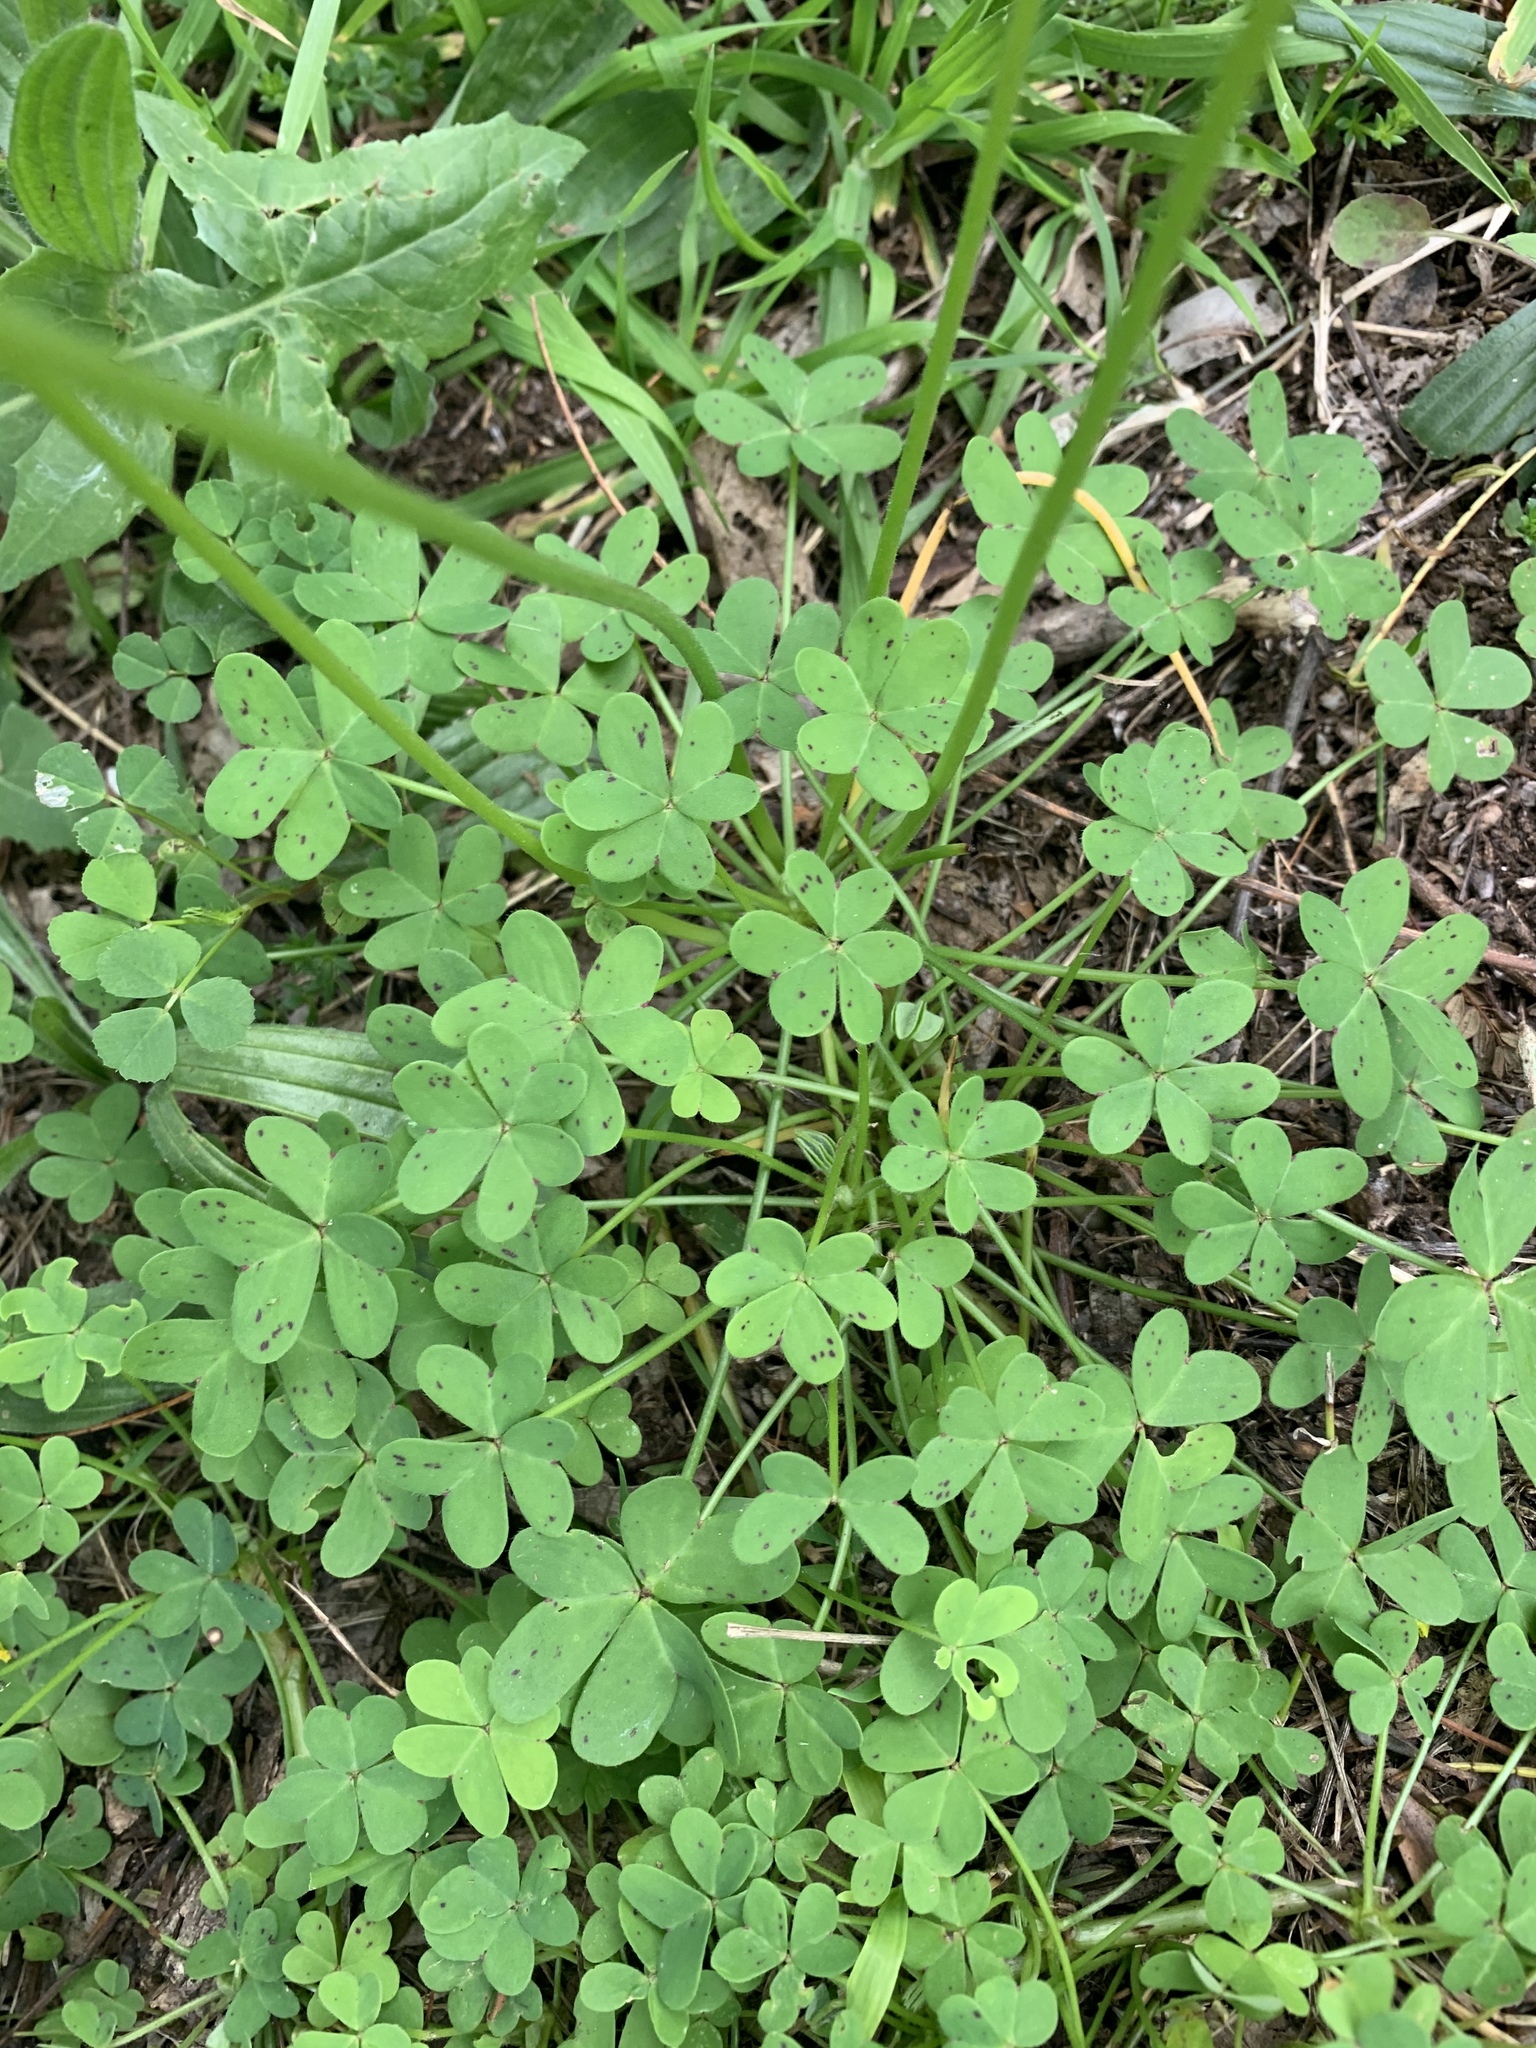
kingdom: Plantae
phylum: Tracheophyta
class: Magnoliopsida
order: Oxalidales
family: Oxalidaceae
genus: Oxalis
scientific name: Oxalis pes-caprae
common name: Bermuda-buttercup
